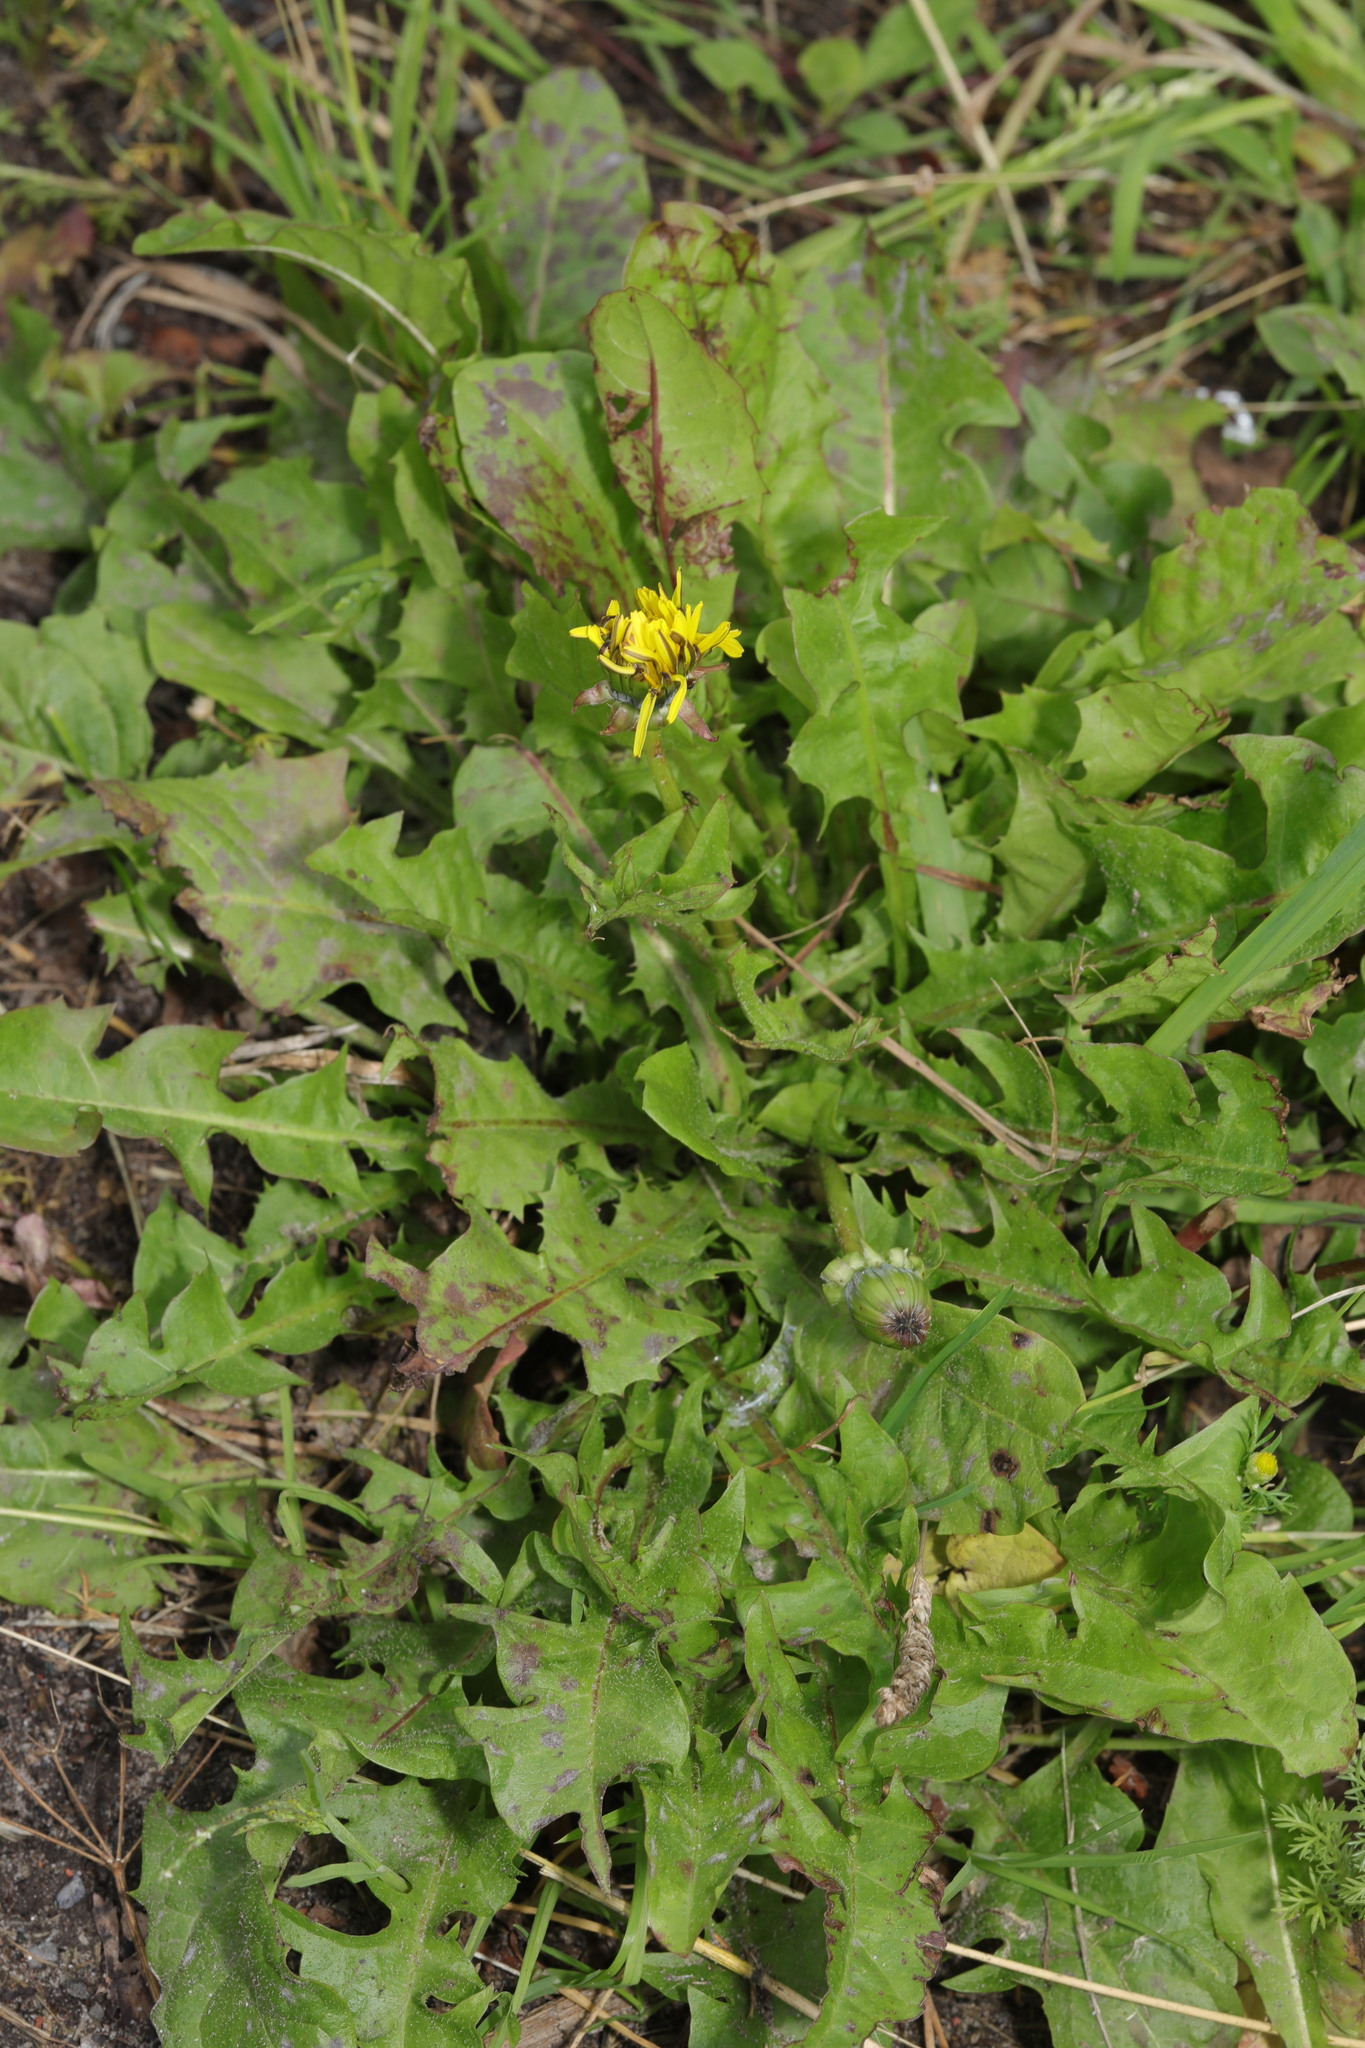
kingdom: Plantae
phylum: Tracheophyta
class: Magnoliopsida
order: Asterales
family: Asteraceae
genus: Taraxacum
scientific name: Taraxacum officinale
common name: Common dandelion
